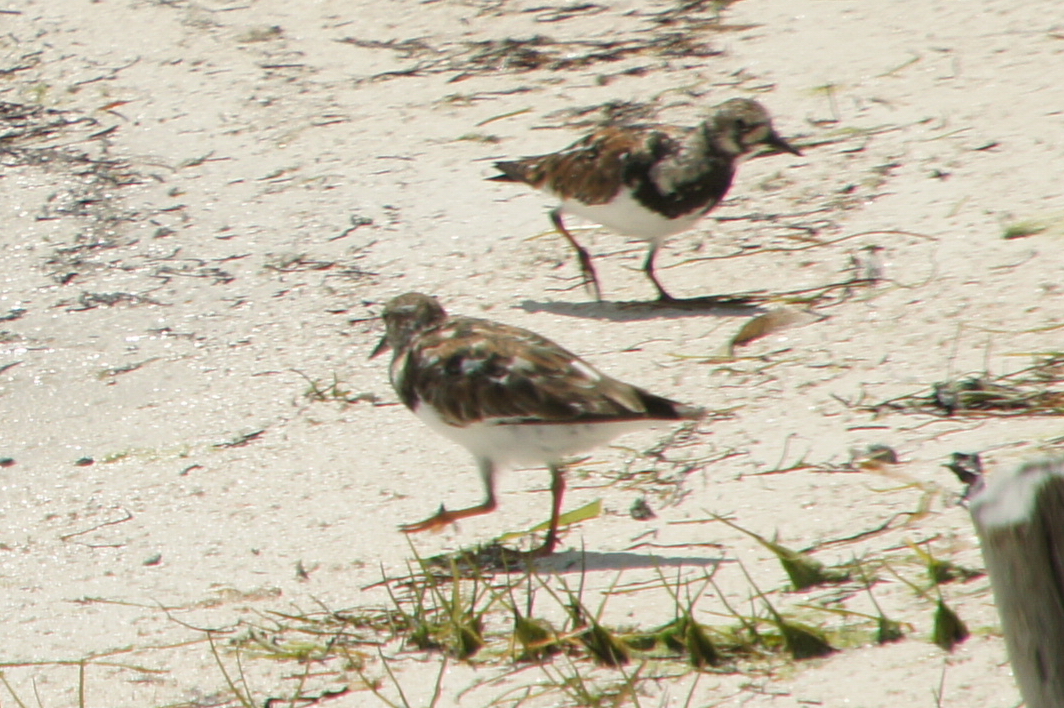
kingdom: Animalia
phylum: Chordata
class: Aves
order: Charadriiformes
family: Scolopacidae
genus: Arenaria
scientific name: Arenaria interpres
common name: Ruddy turnstone
